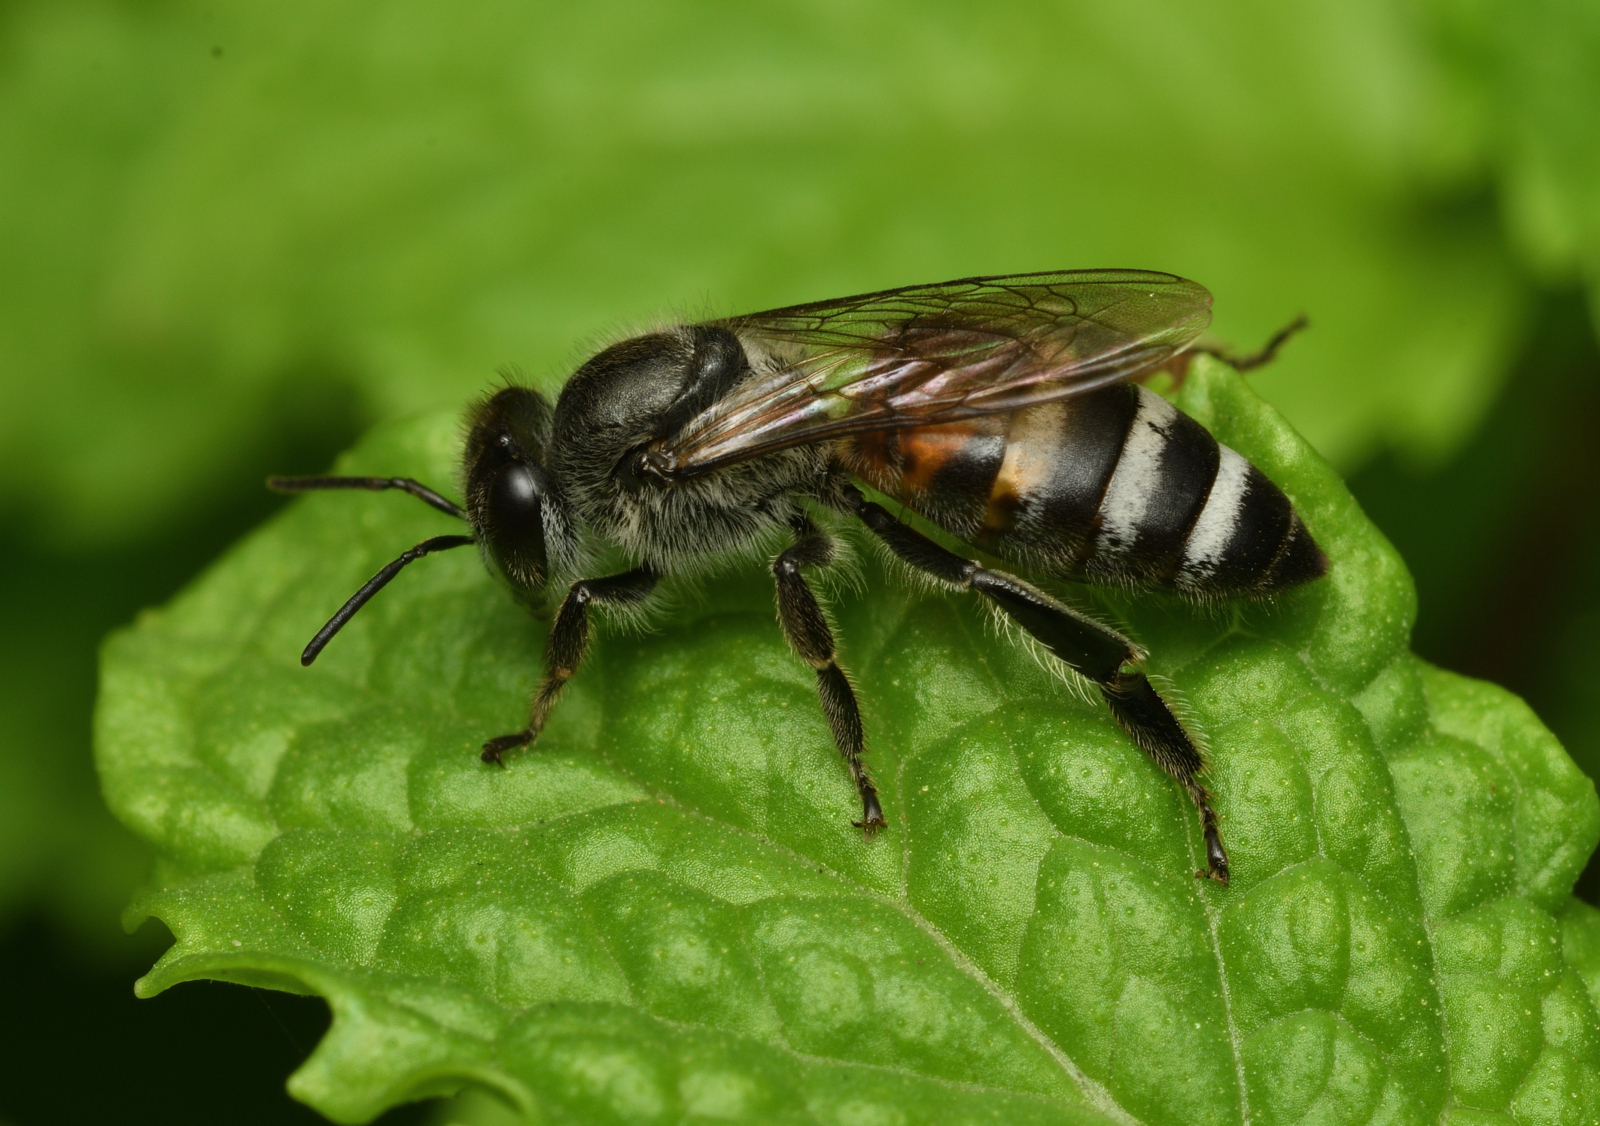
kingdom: Animalia
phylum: Arthropoda
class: Insecta
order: Hymenoptera
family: Apidae
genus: Apis
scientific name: Apis florea
